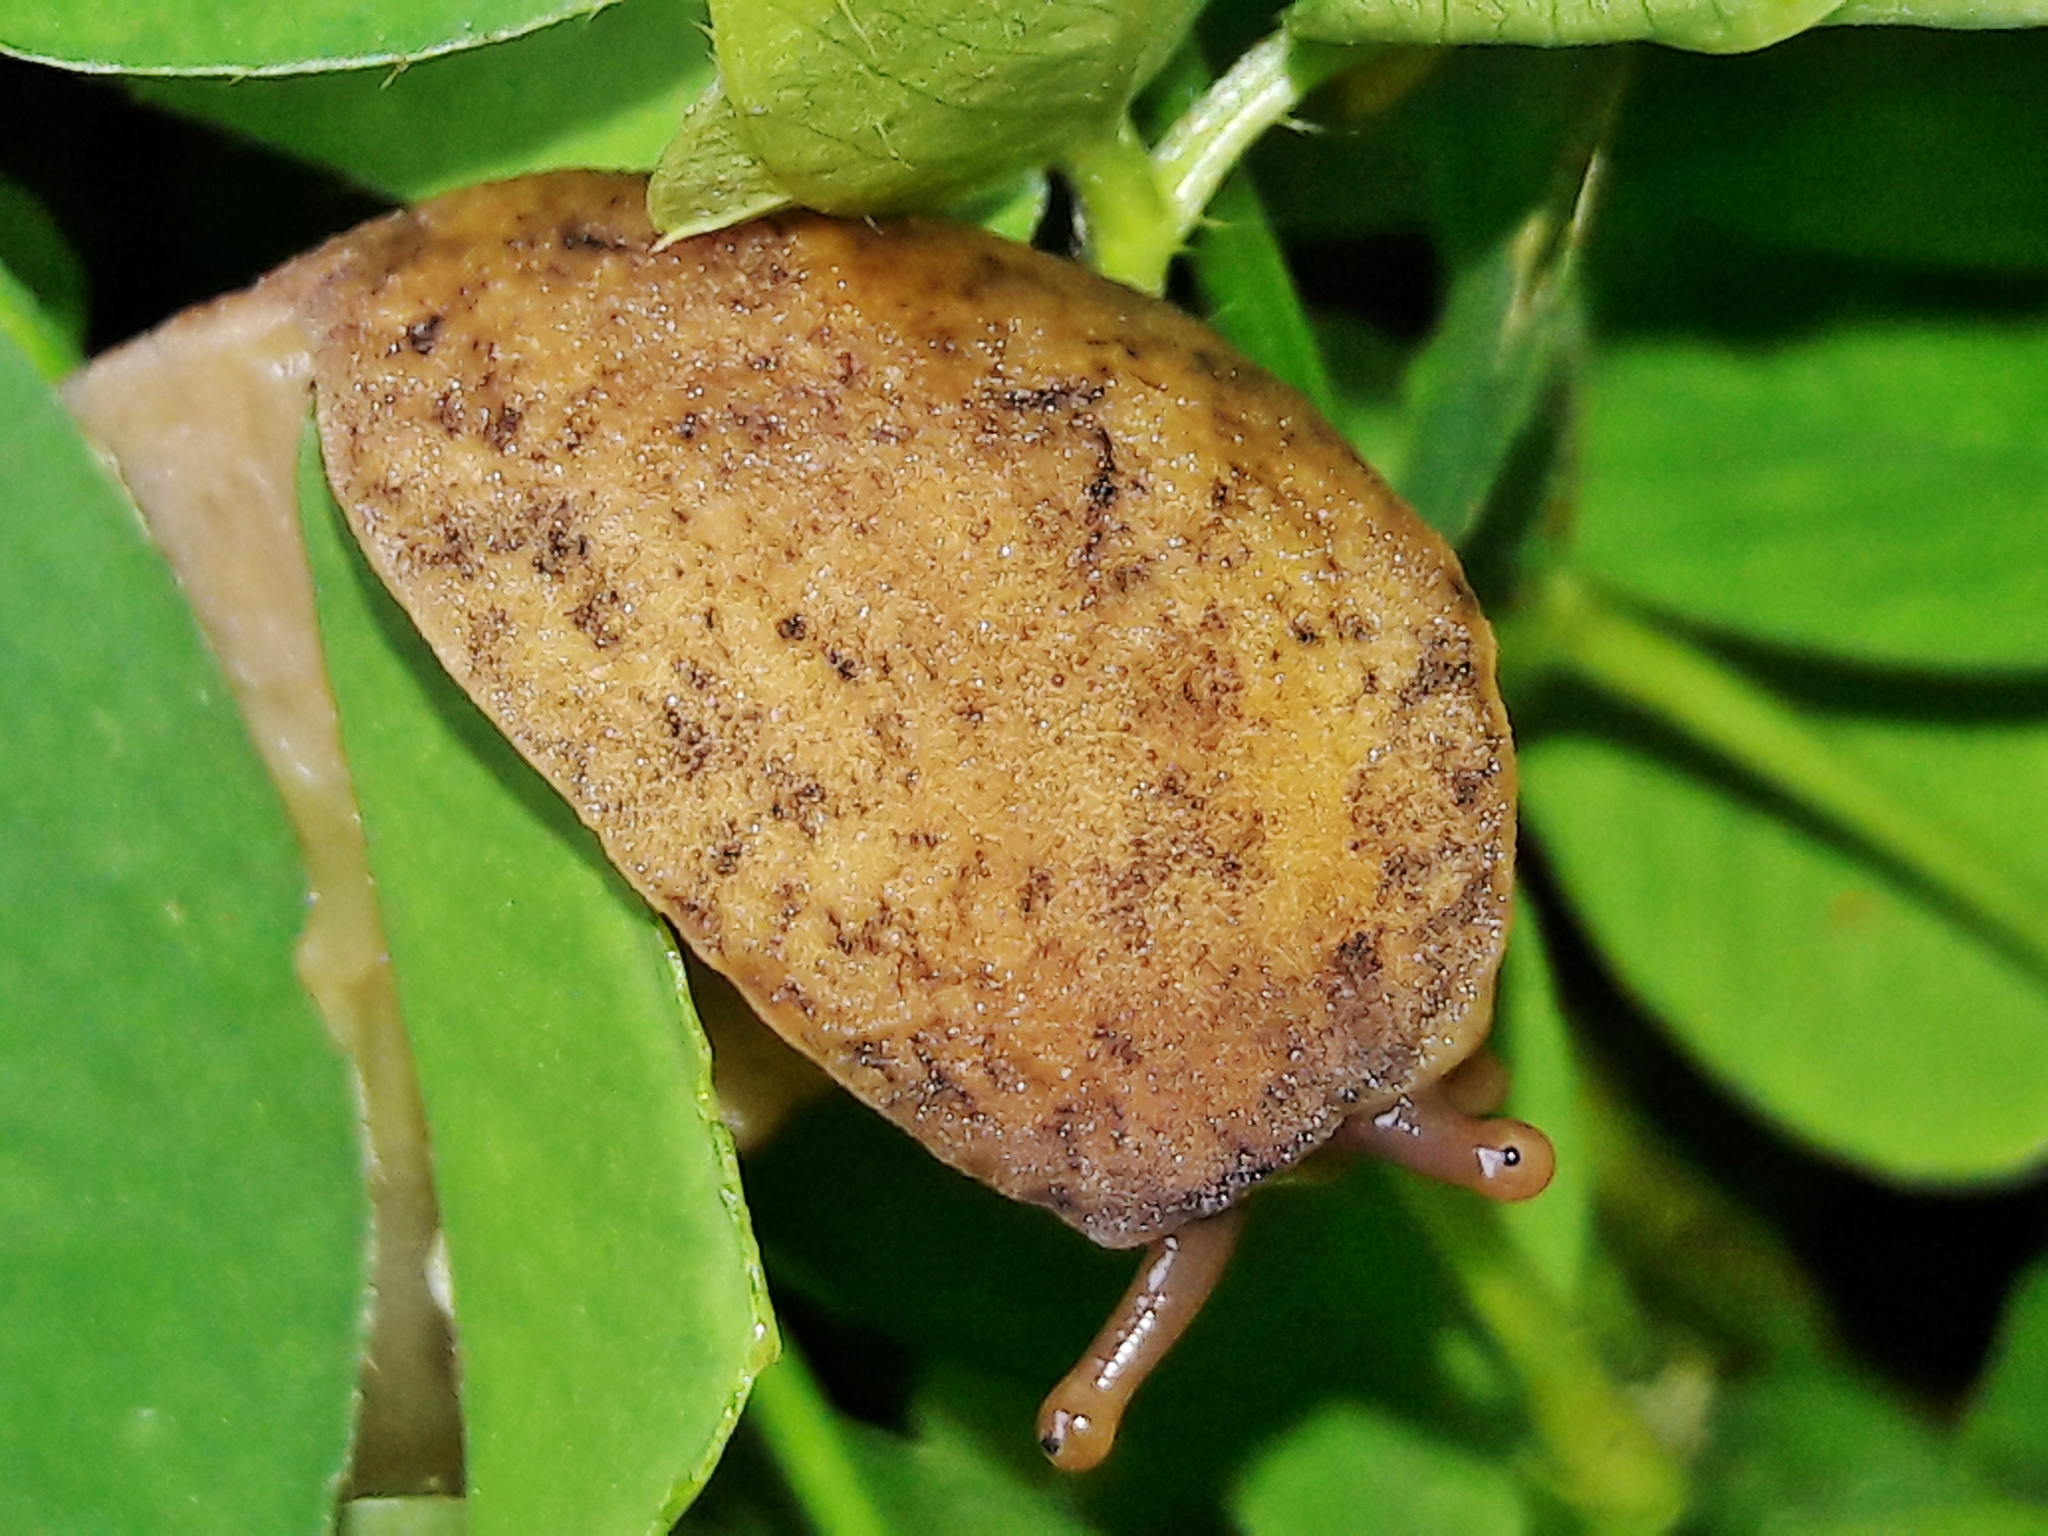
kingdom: Animalia
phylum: Mollusca
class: Gastropoda
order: Systellommatophora
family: Veronicellidae
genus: Sarasinula
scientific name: Sarasinula linguaeformis
